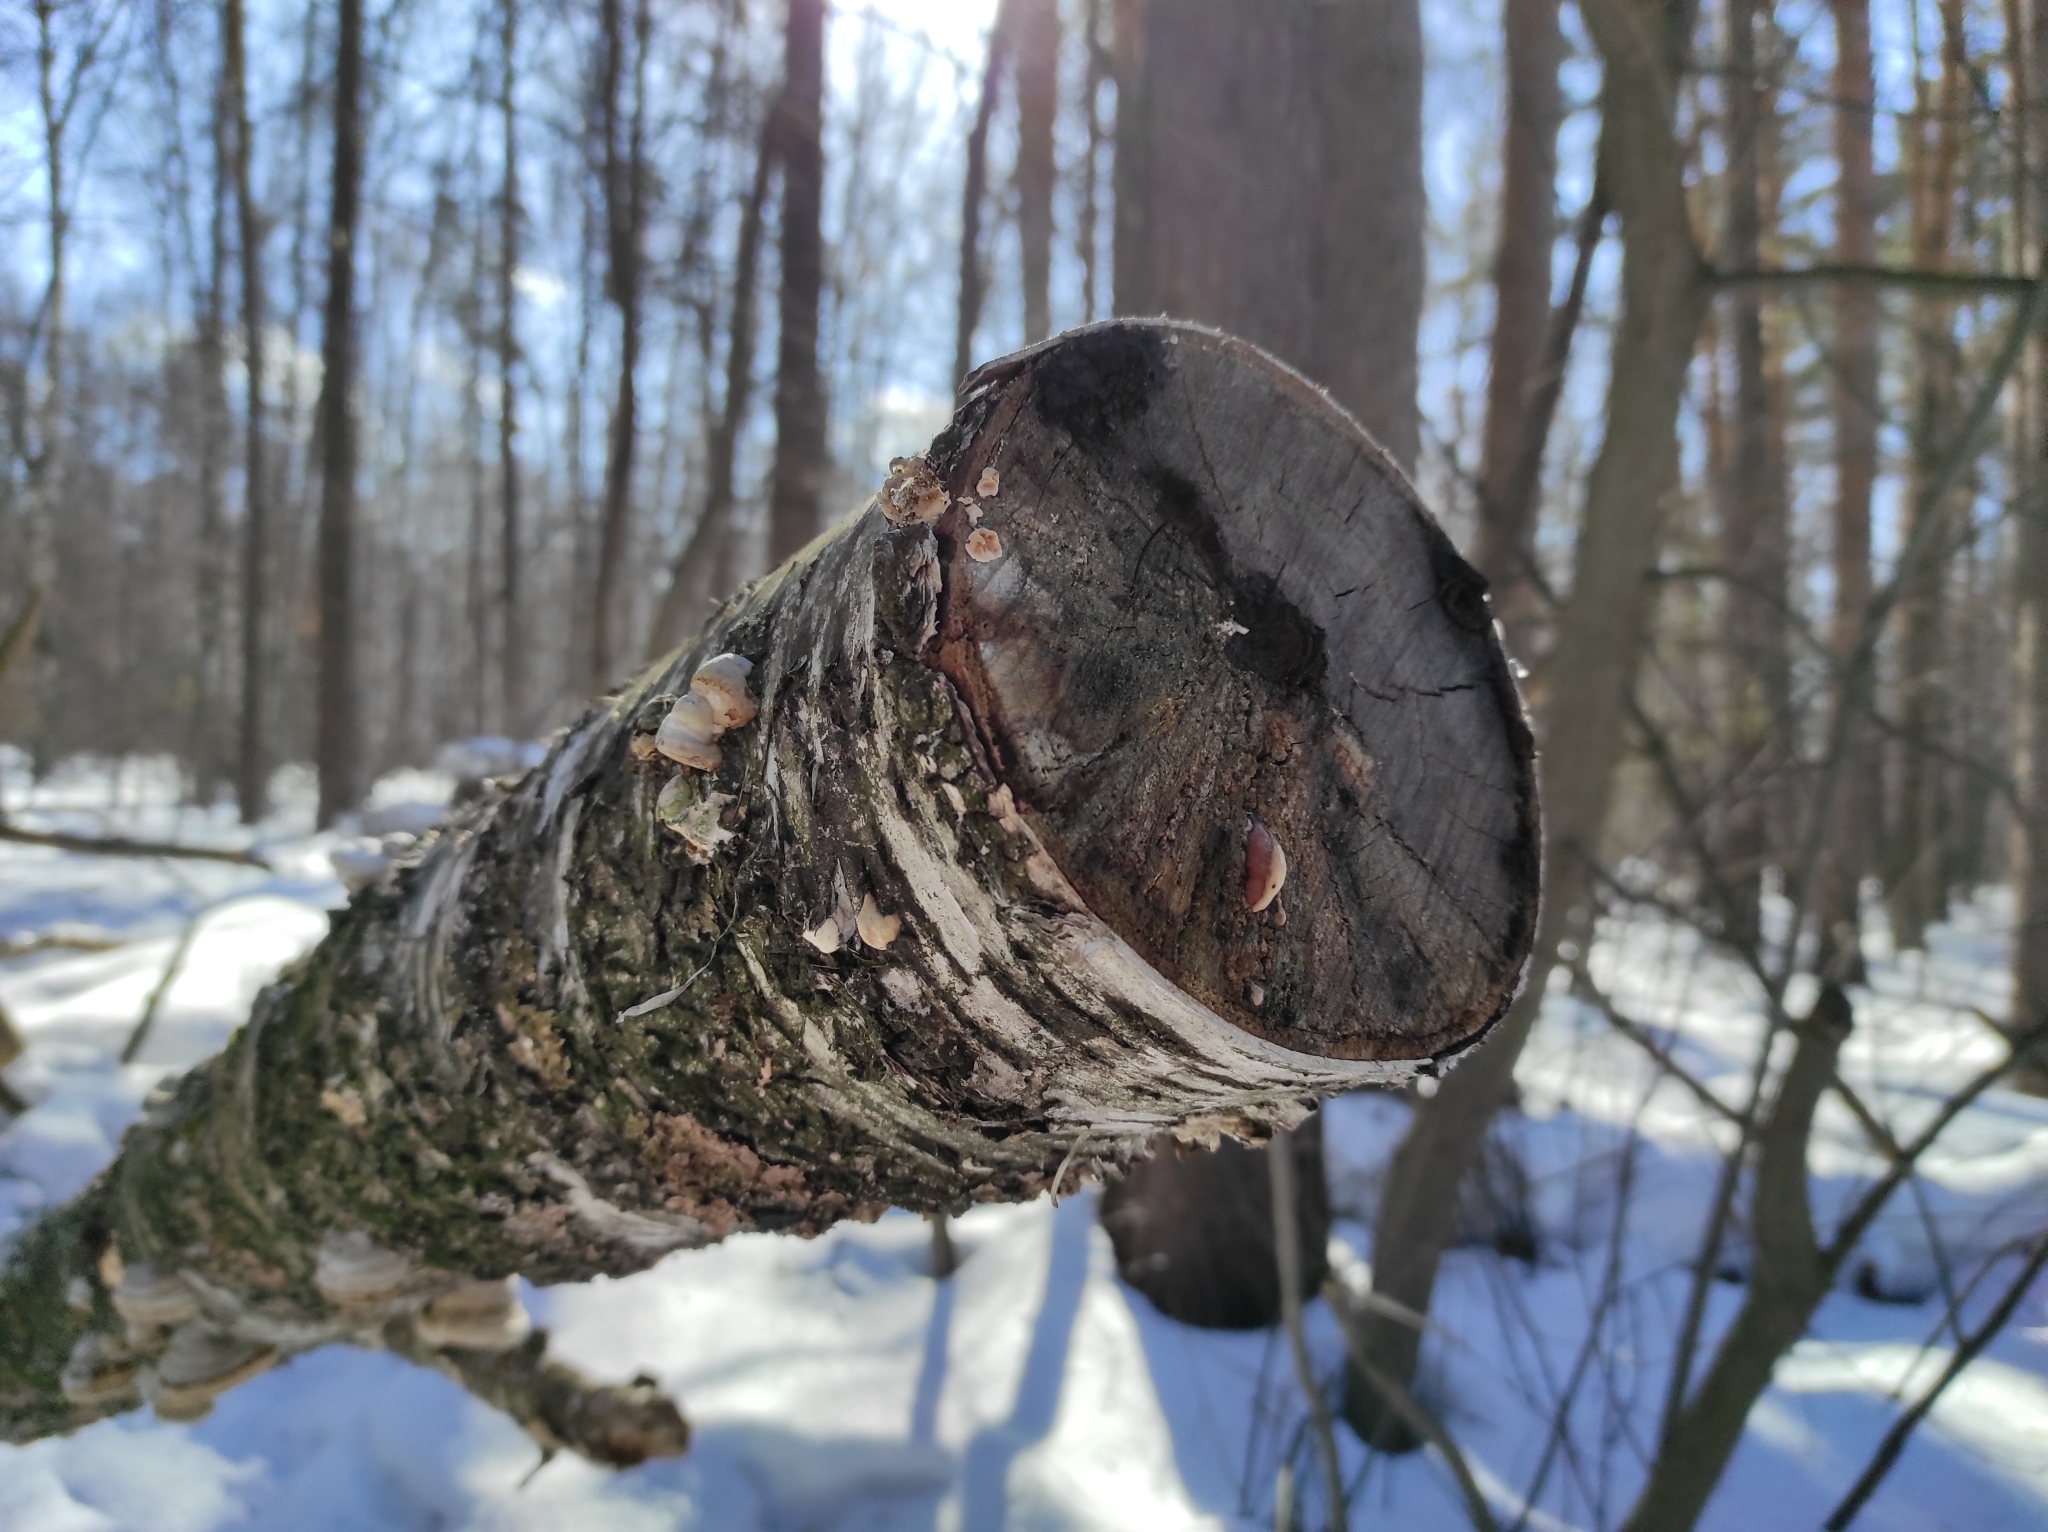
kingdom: Fungi
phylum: Basidiomycota
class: Agaricomycetes
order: Polyporales
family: Polyporaceae
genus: Fomes
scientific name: Fomes fomentarius
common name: Hoof fungus
